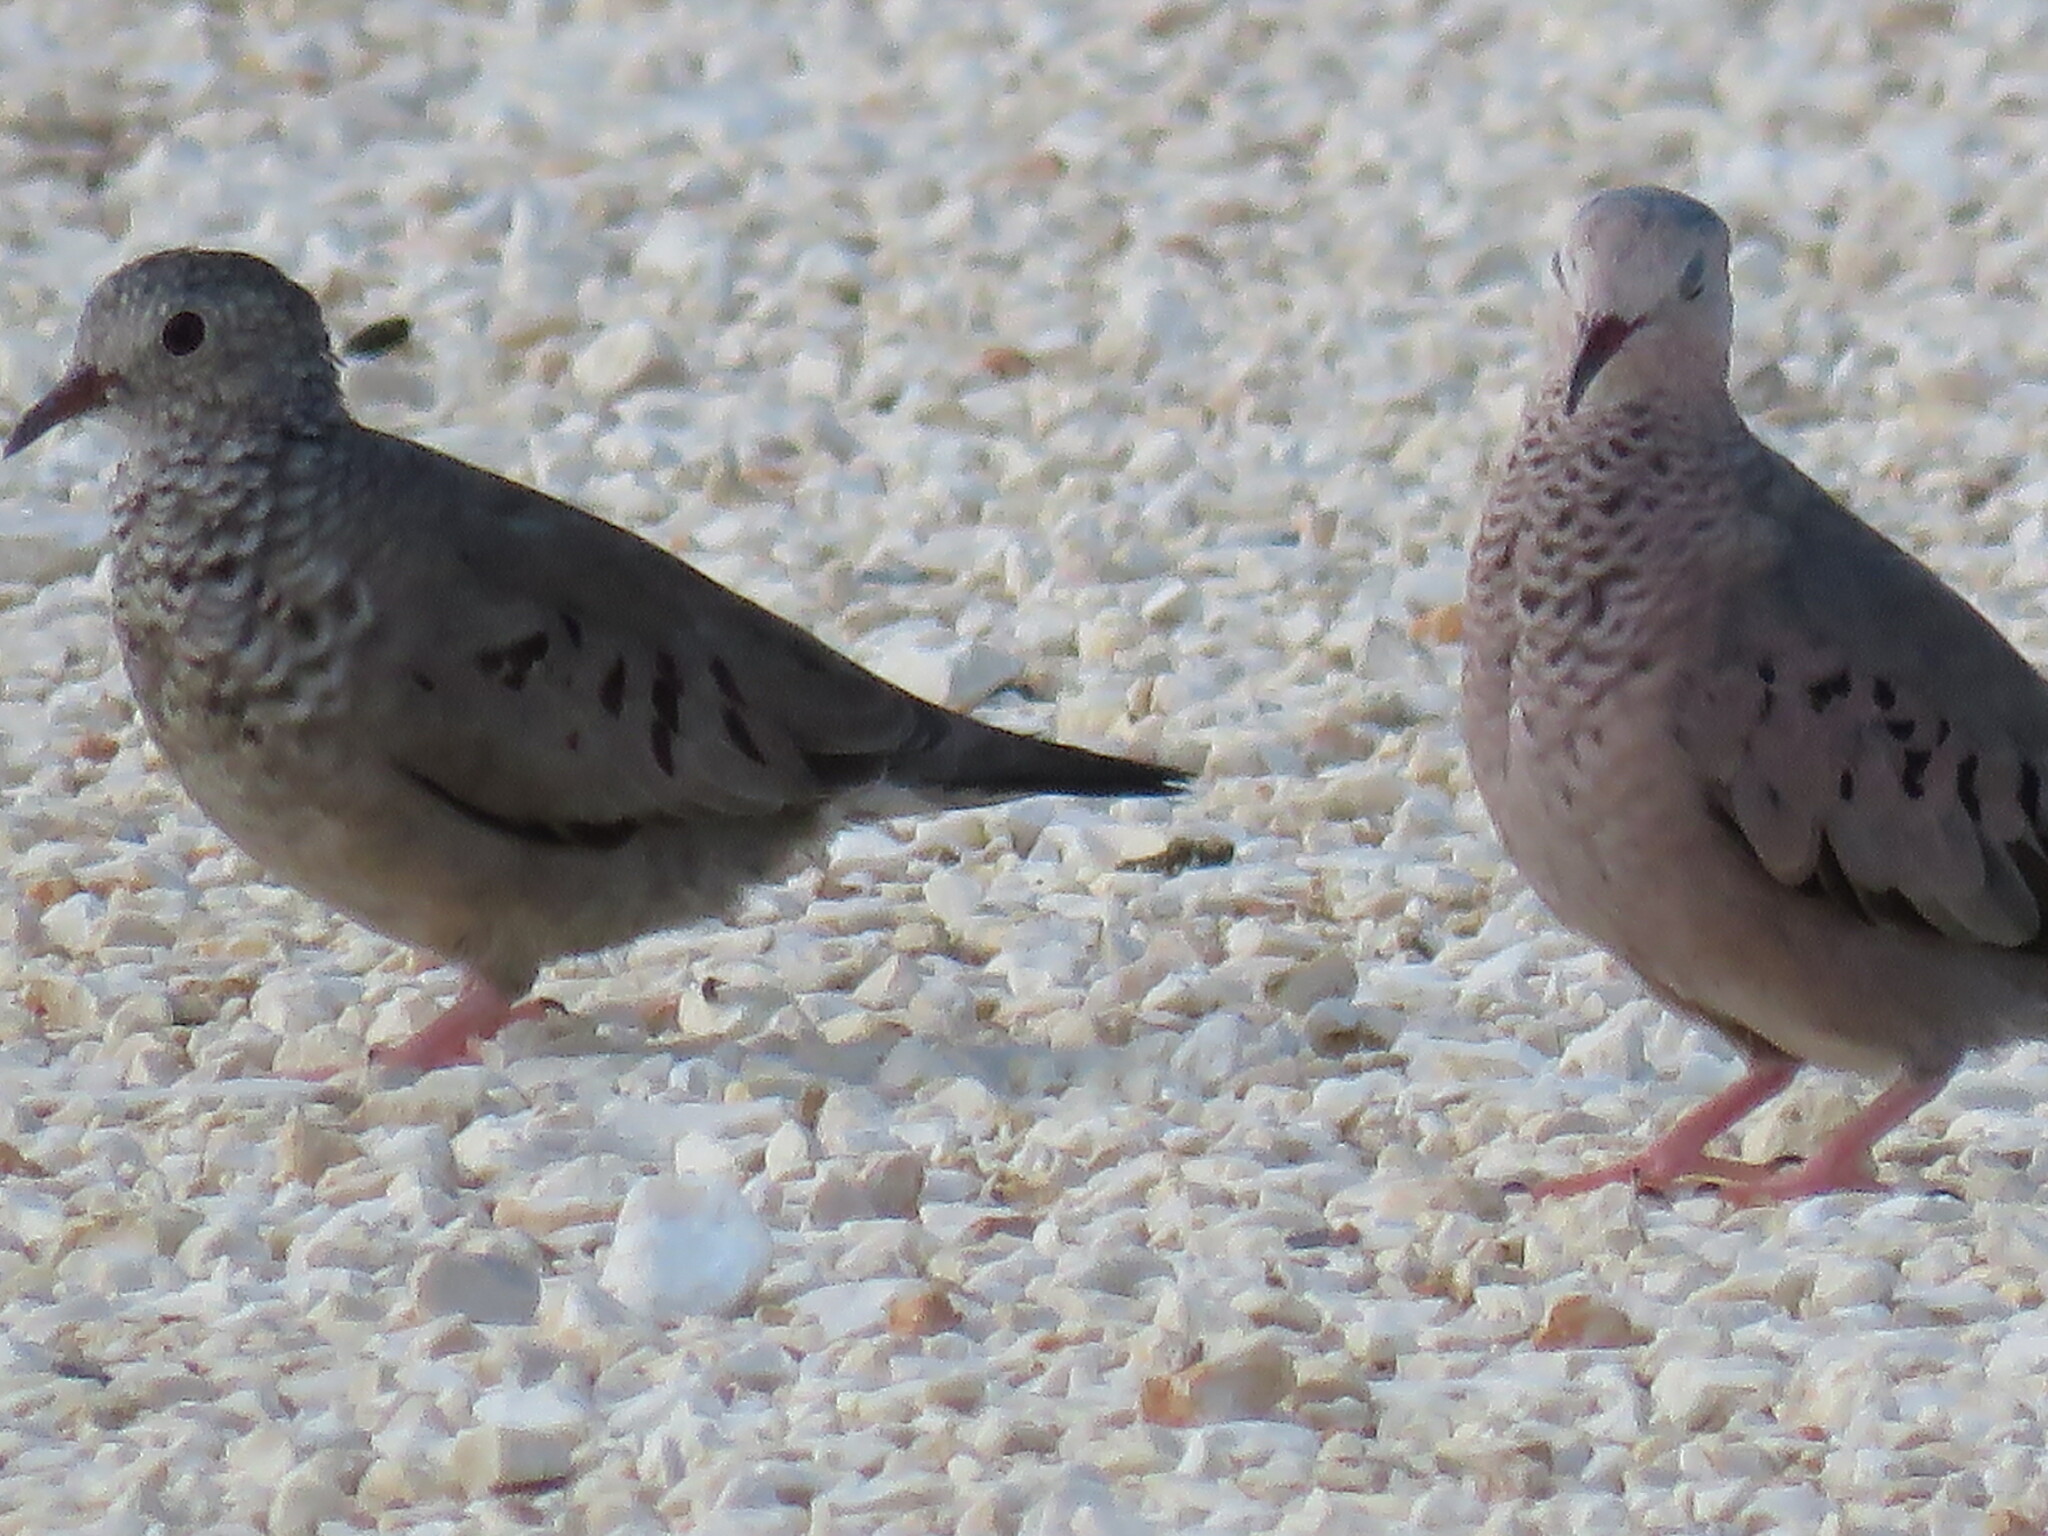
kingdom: Animalia
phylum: Chordata
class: Aves
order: Columbiformes
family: Columbidae
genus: Columbina
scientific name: Columbina passerina
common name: Common ground-dove
